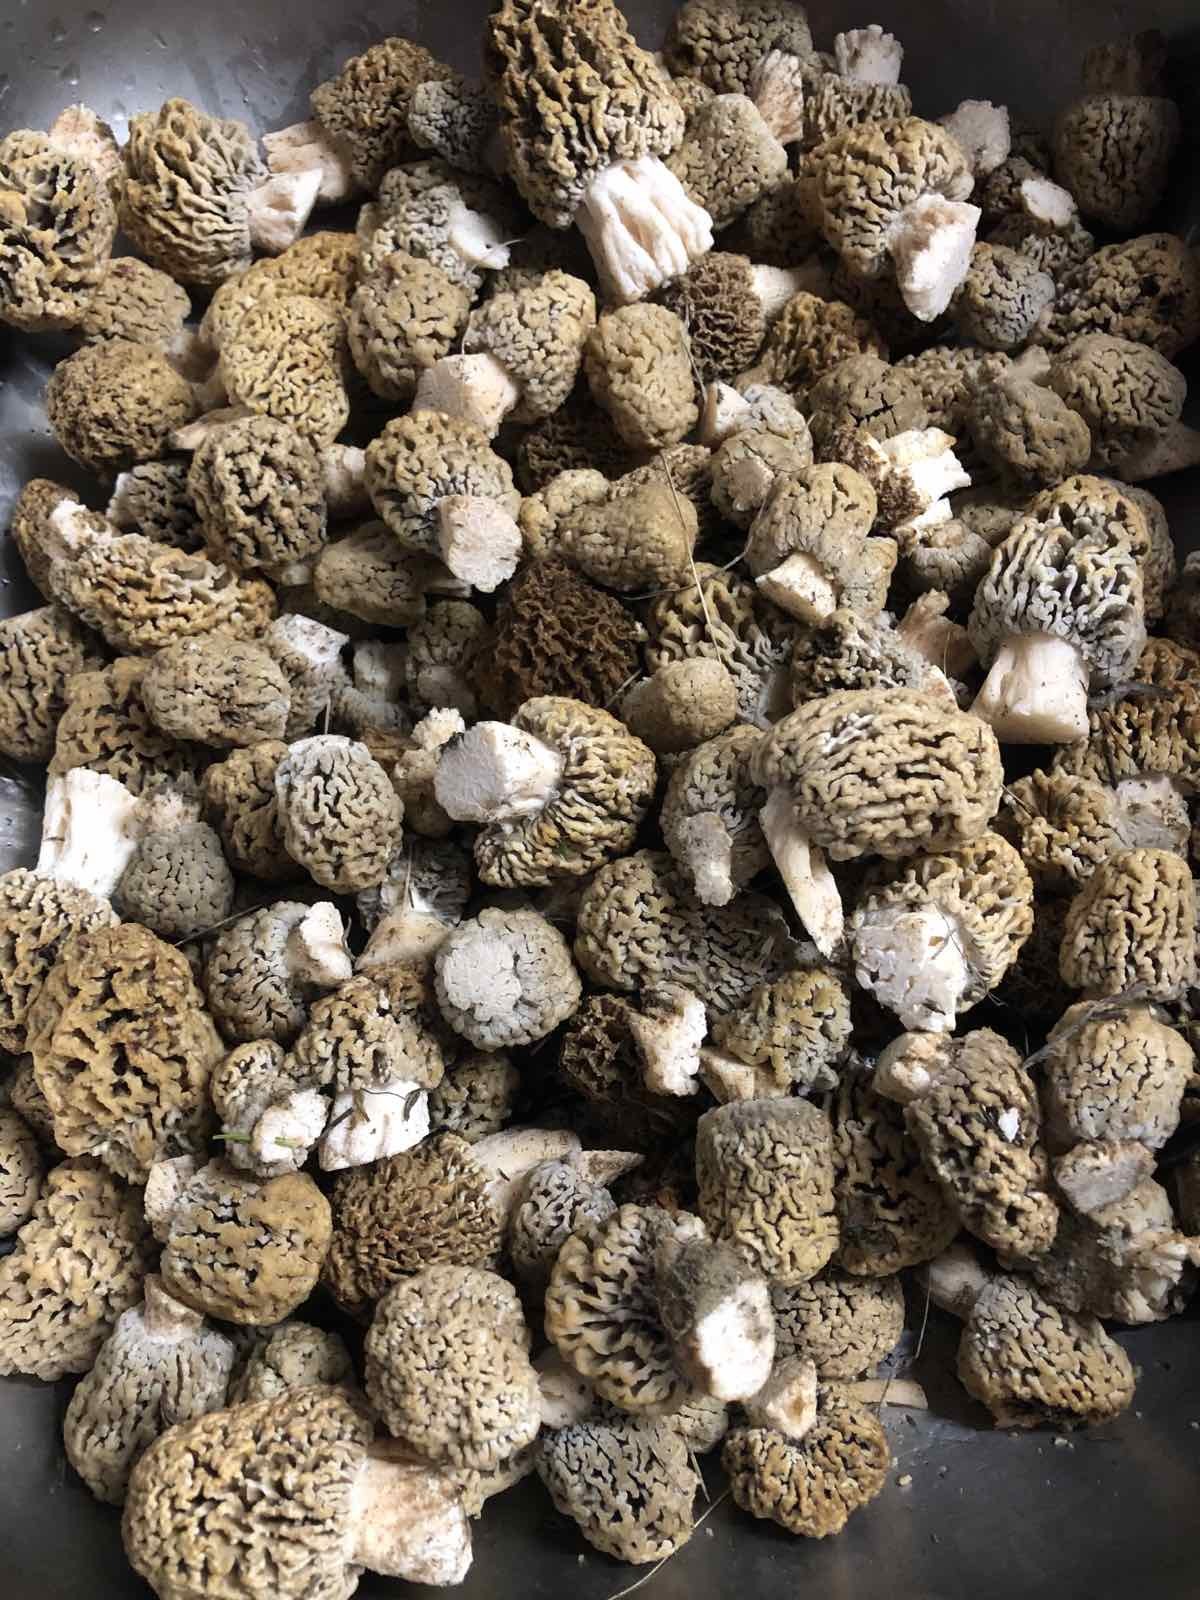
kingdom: Fungi
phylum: Ascomycota
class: Pezizomycetes
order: Pezizales
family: Morchellaceae
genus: Morchella
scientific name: Morchella steppicola
